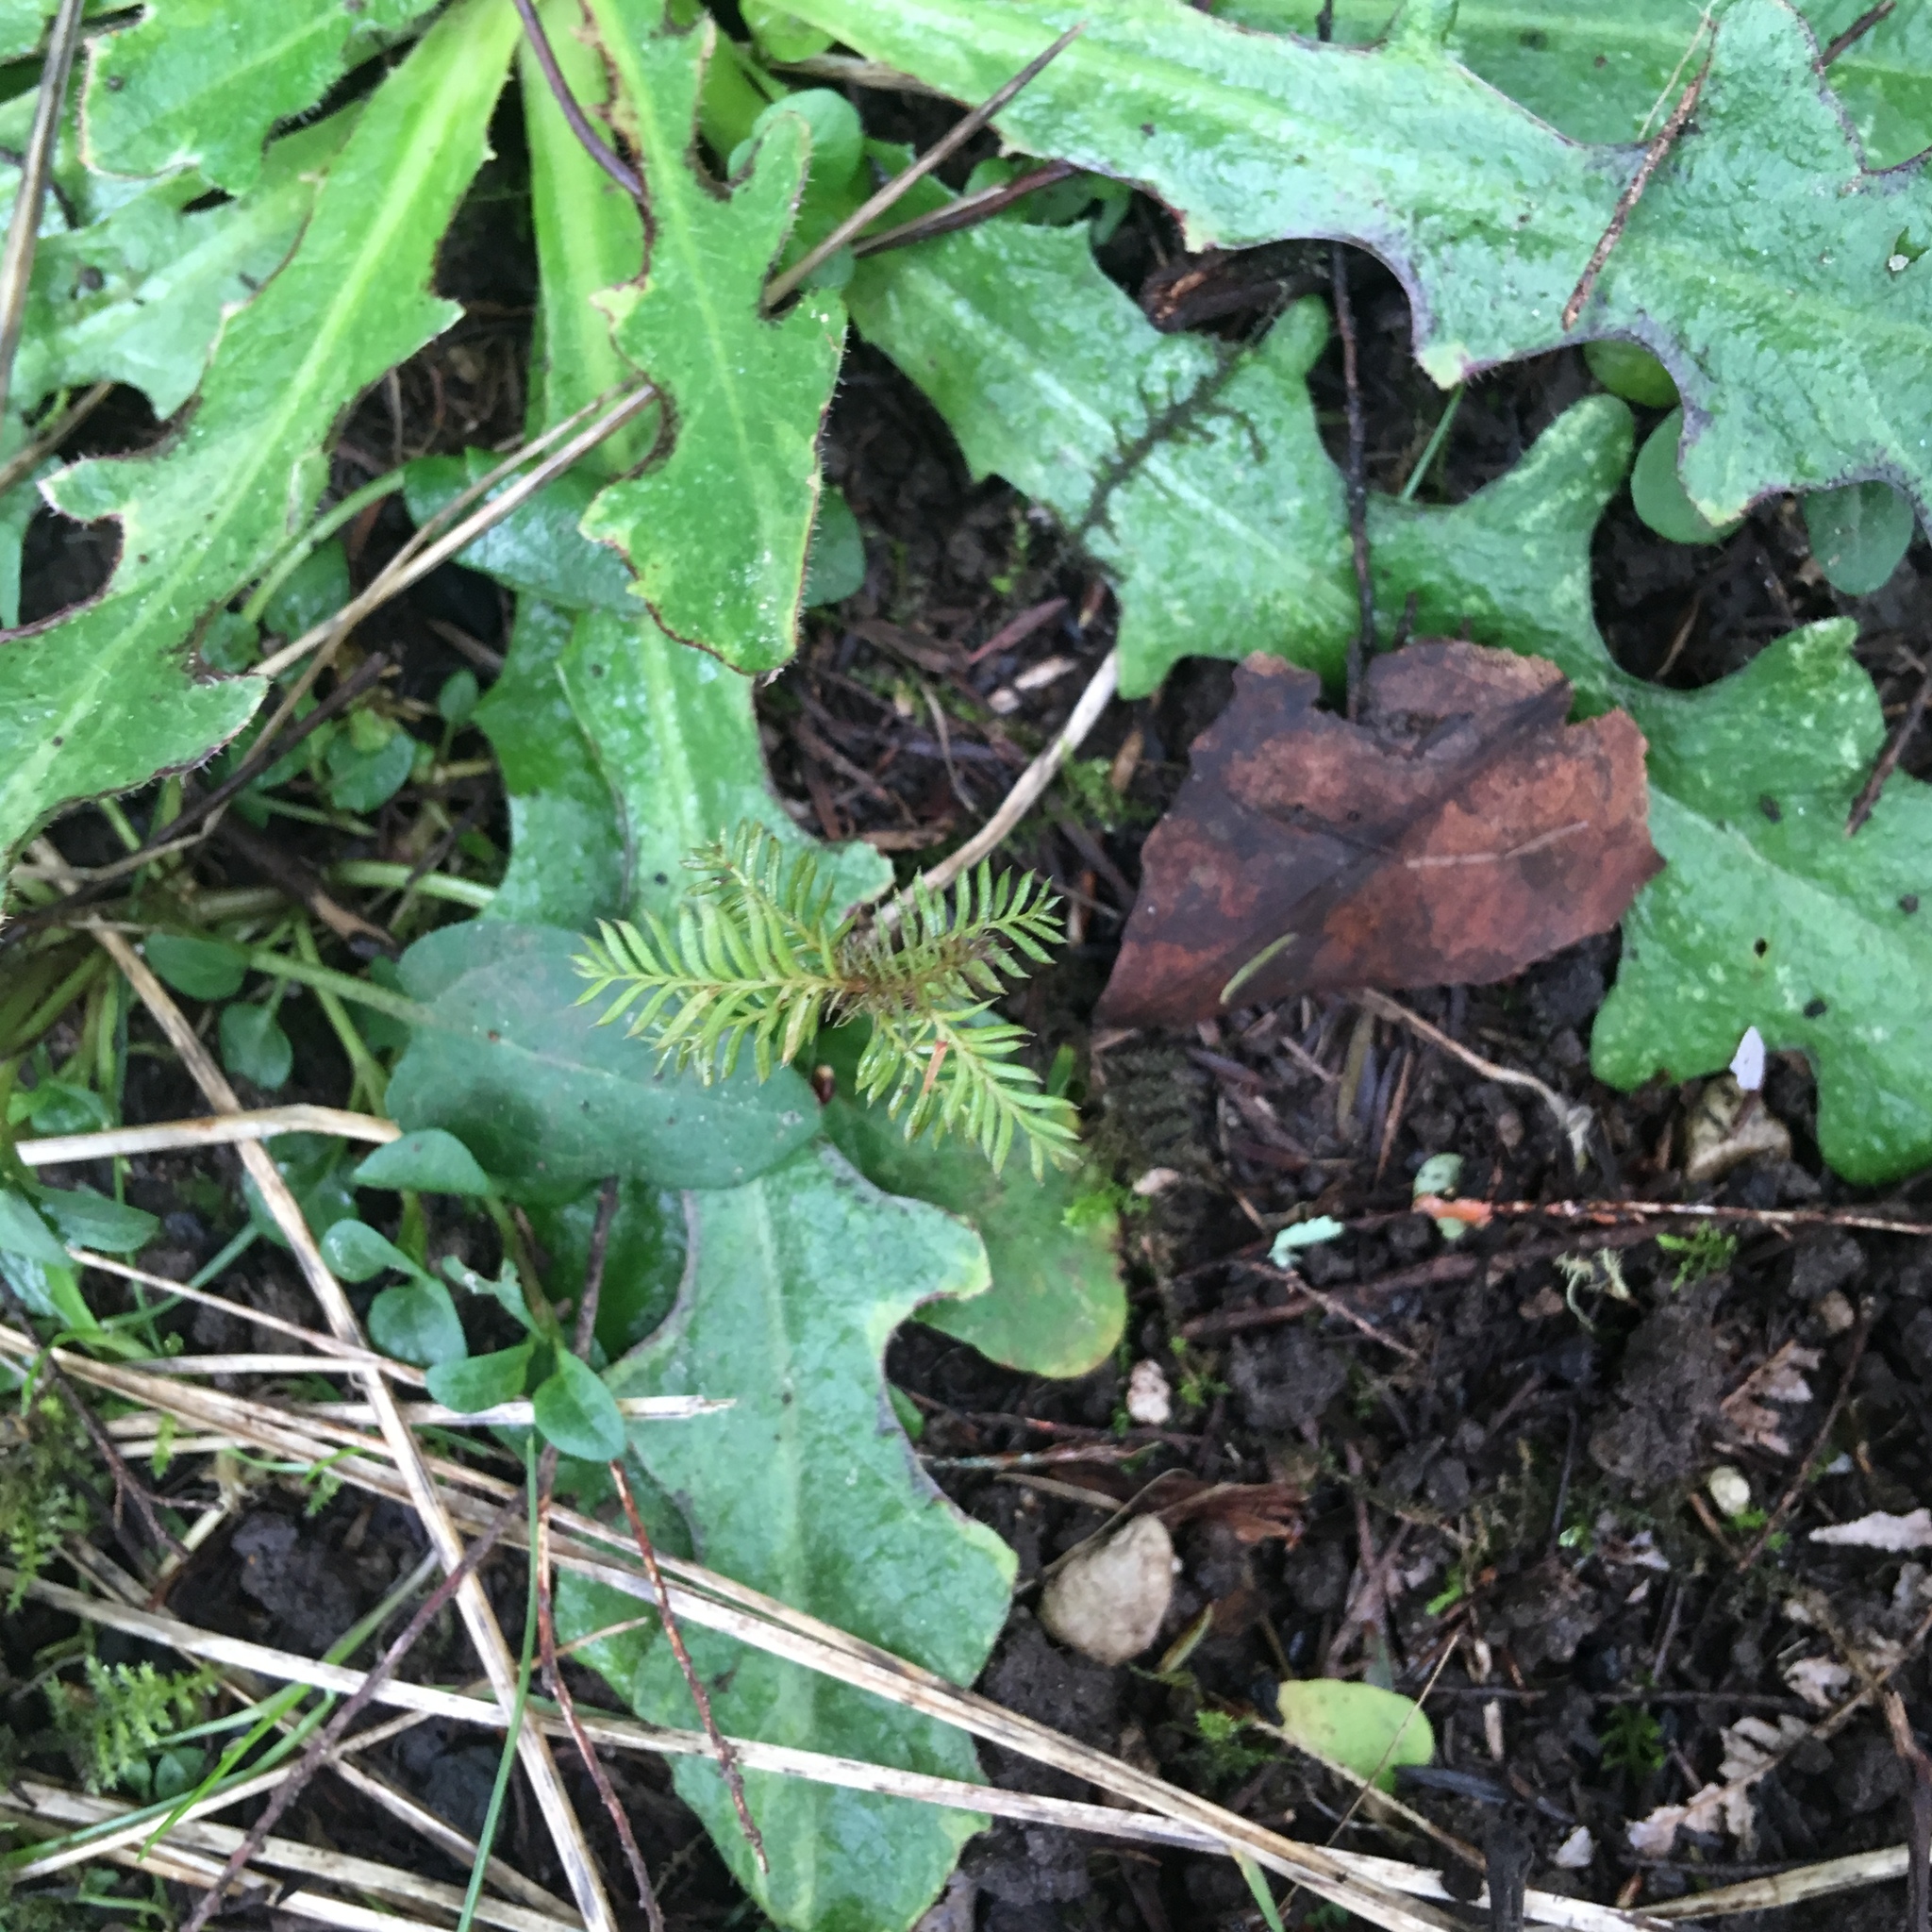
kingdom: Plantae
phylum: Tracheophyta
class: Magnoliopsida
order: Asterales
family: Asteraceae
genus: Hypochaeris
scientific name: Hypochaeris radicata
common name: Flatweed
